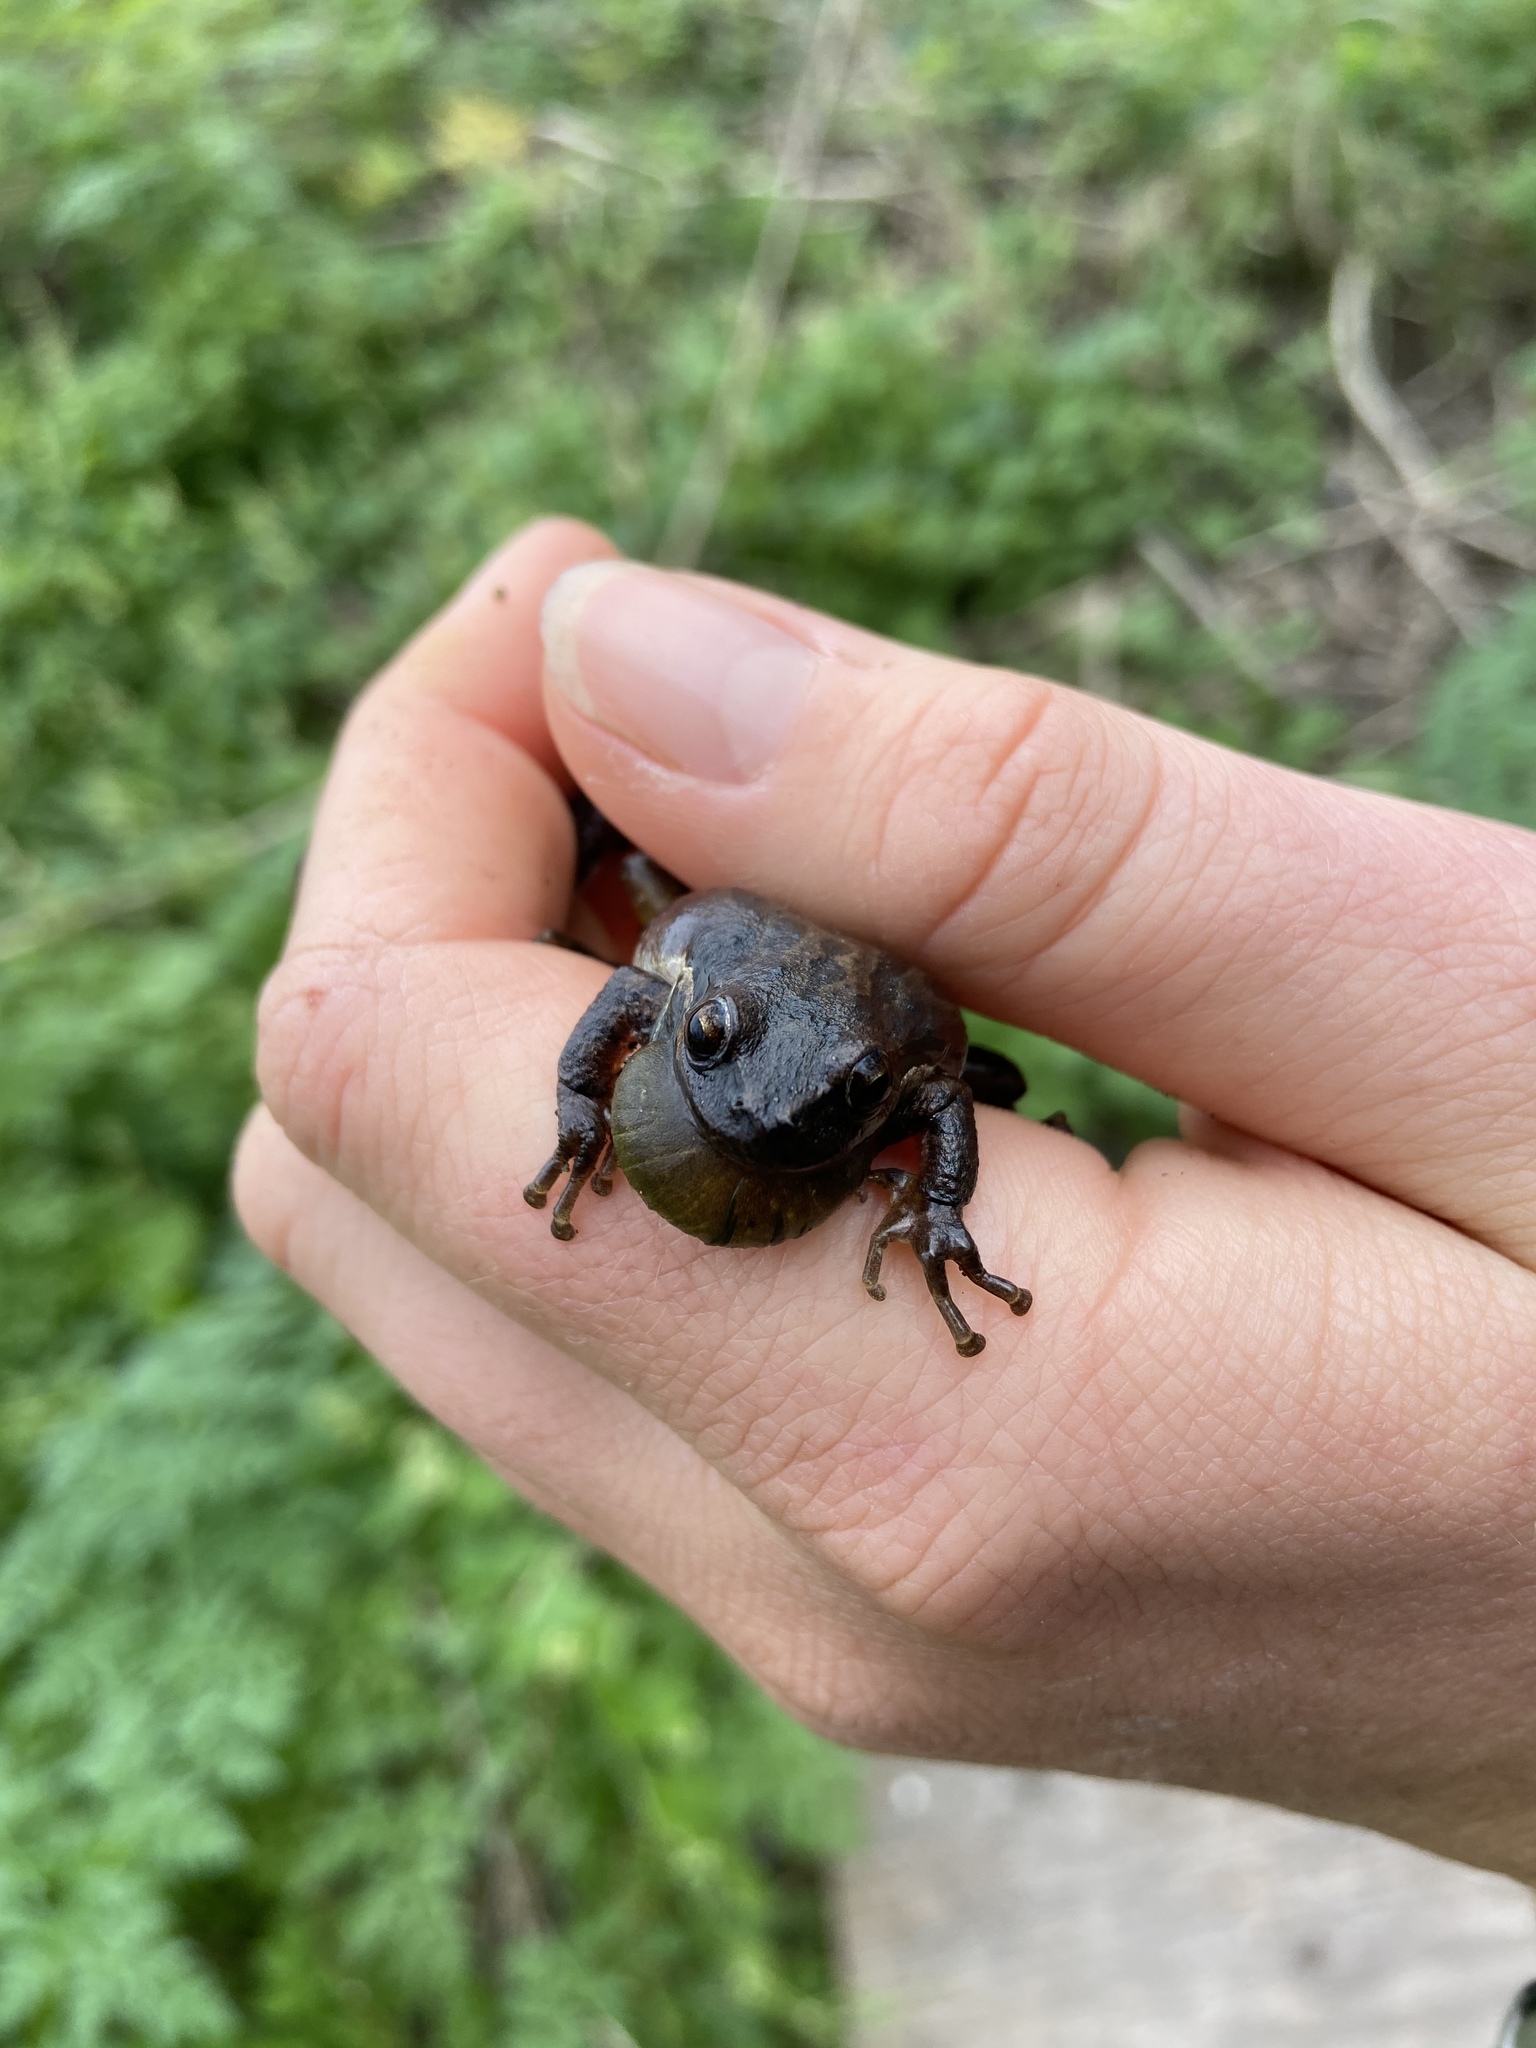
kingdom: Animalia
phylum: Chordata
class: Amphibia
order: Anura
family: Hylidae
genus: Pseudacris
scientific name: Pseudacris regilla
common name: Pacific chorus frog
